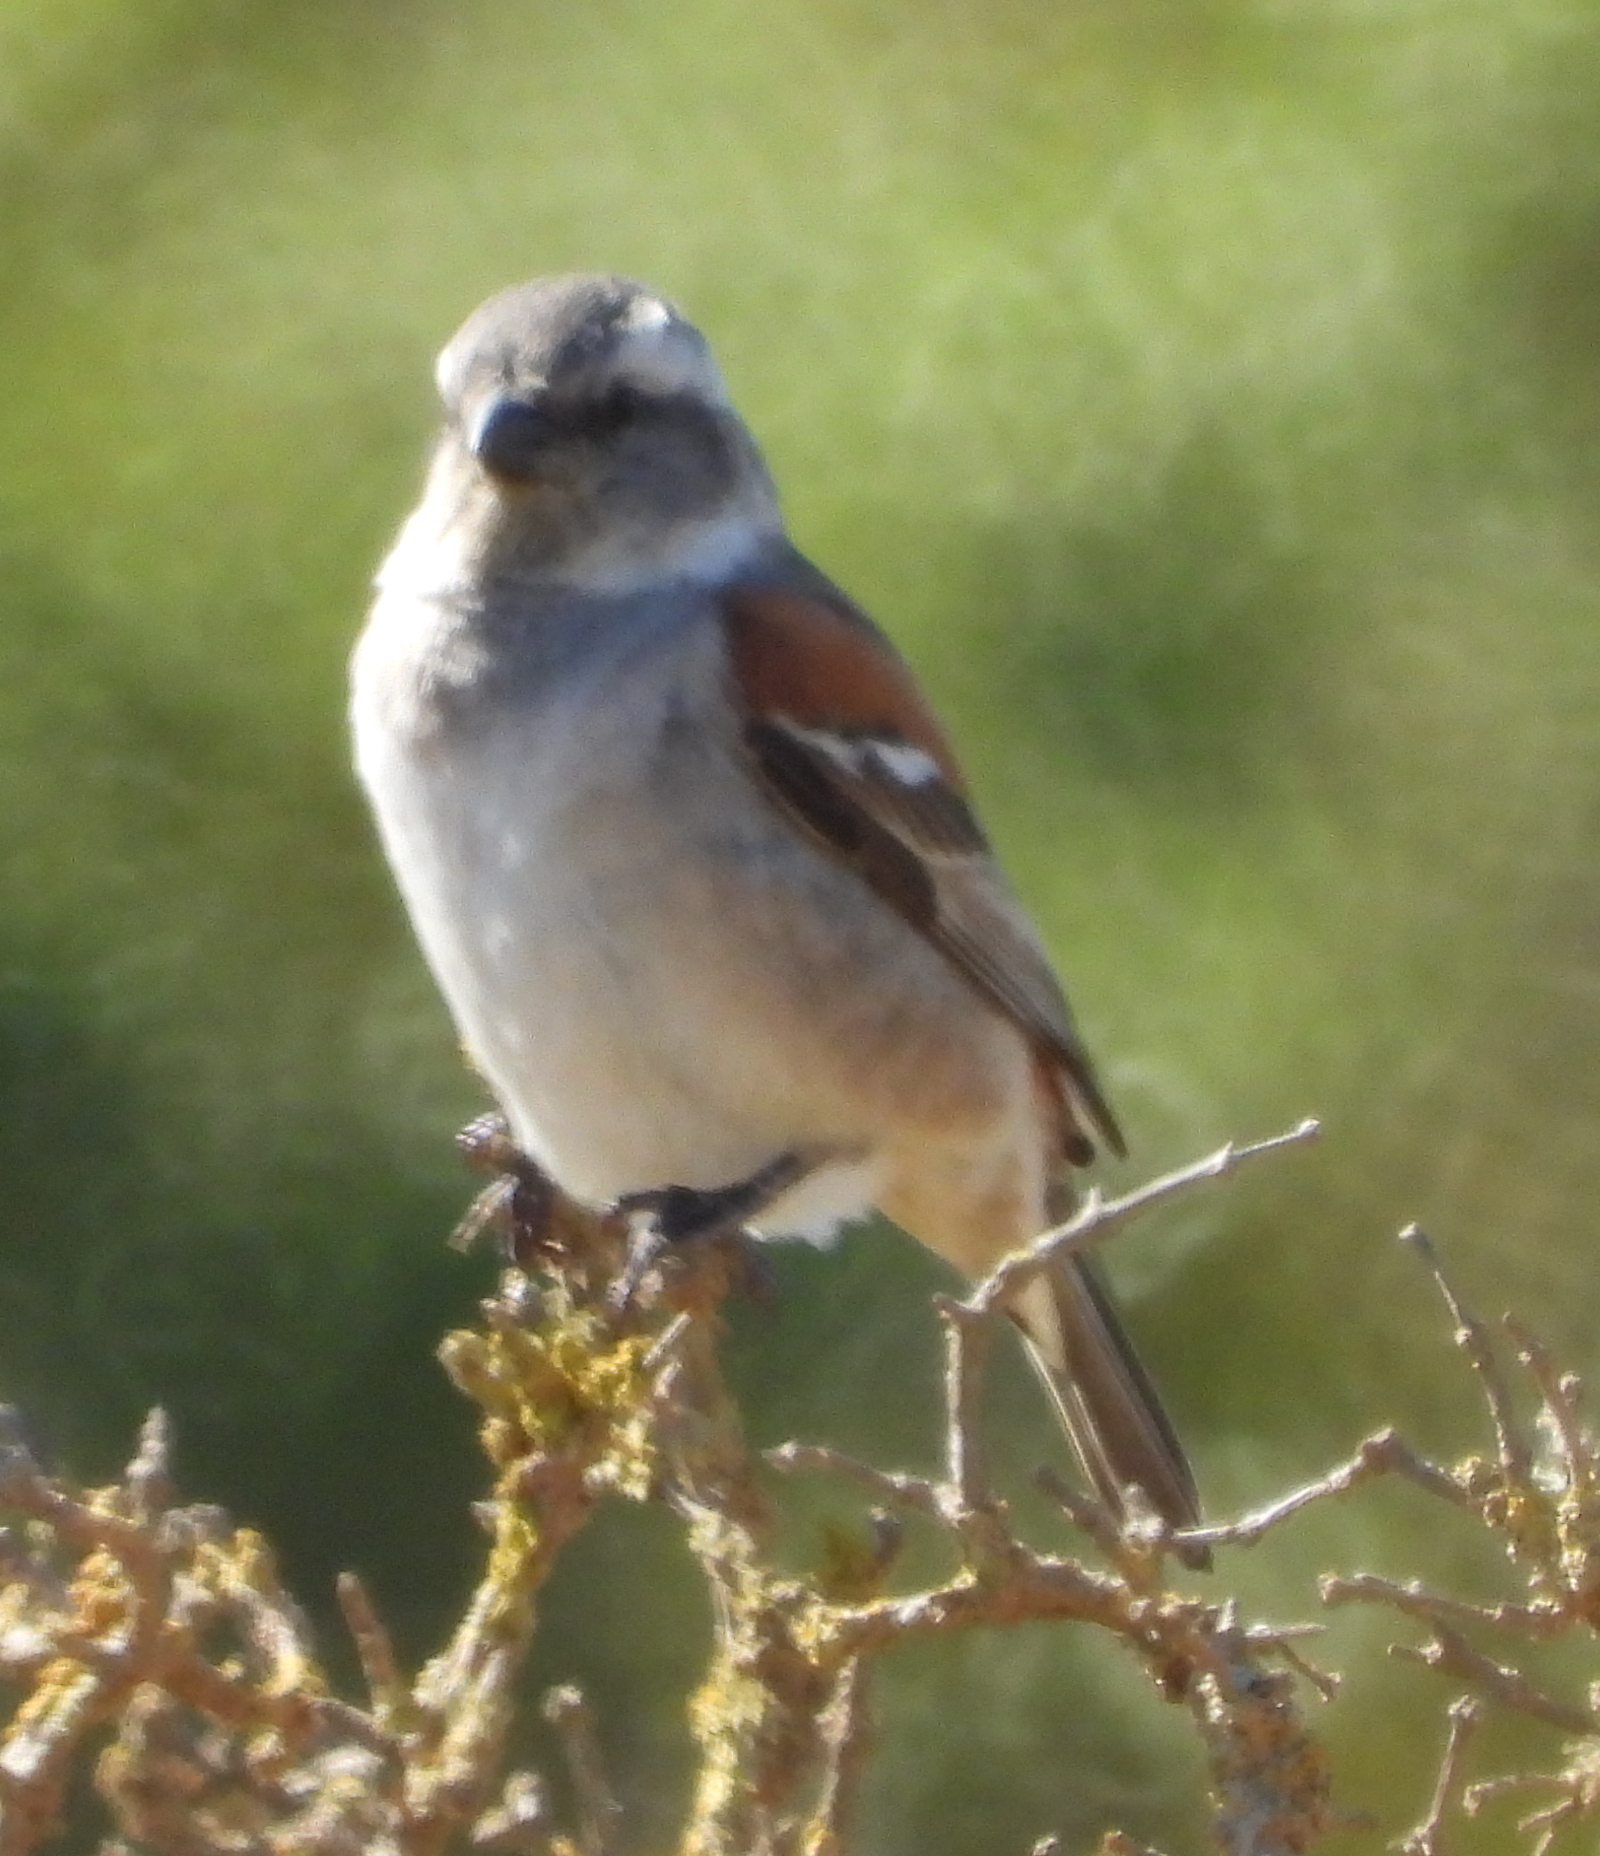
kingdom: Animalia
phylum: Chordata
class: Aves
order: Passeriformes
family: Passeridae
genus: Passer
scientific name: Passer melanurus
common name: Cape sparrow
